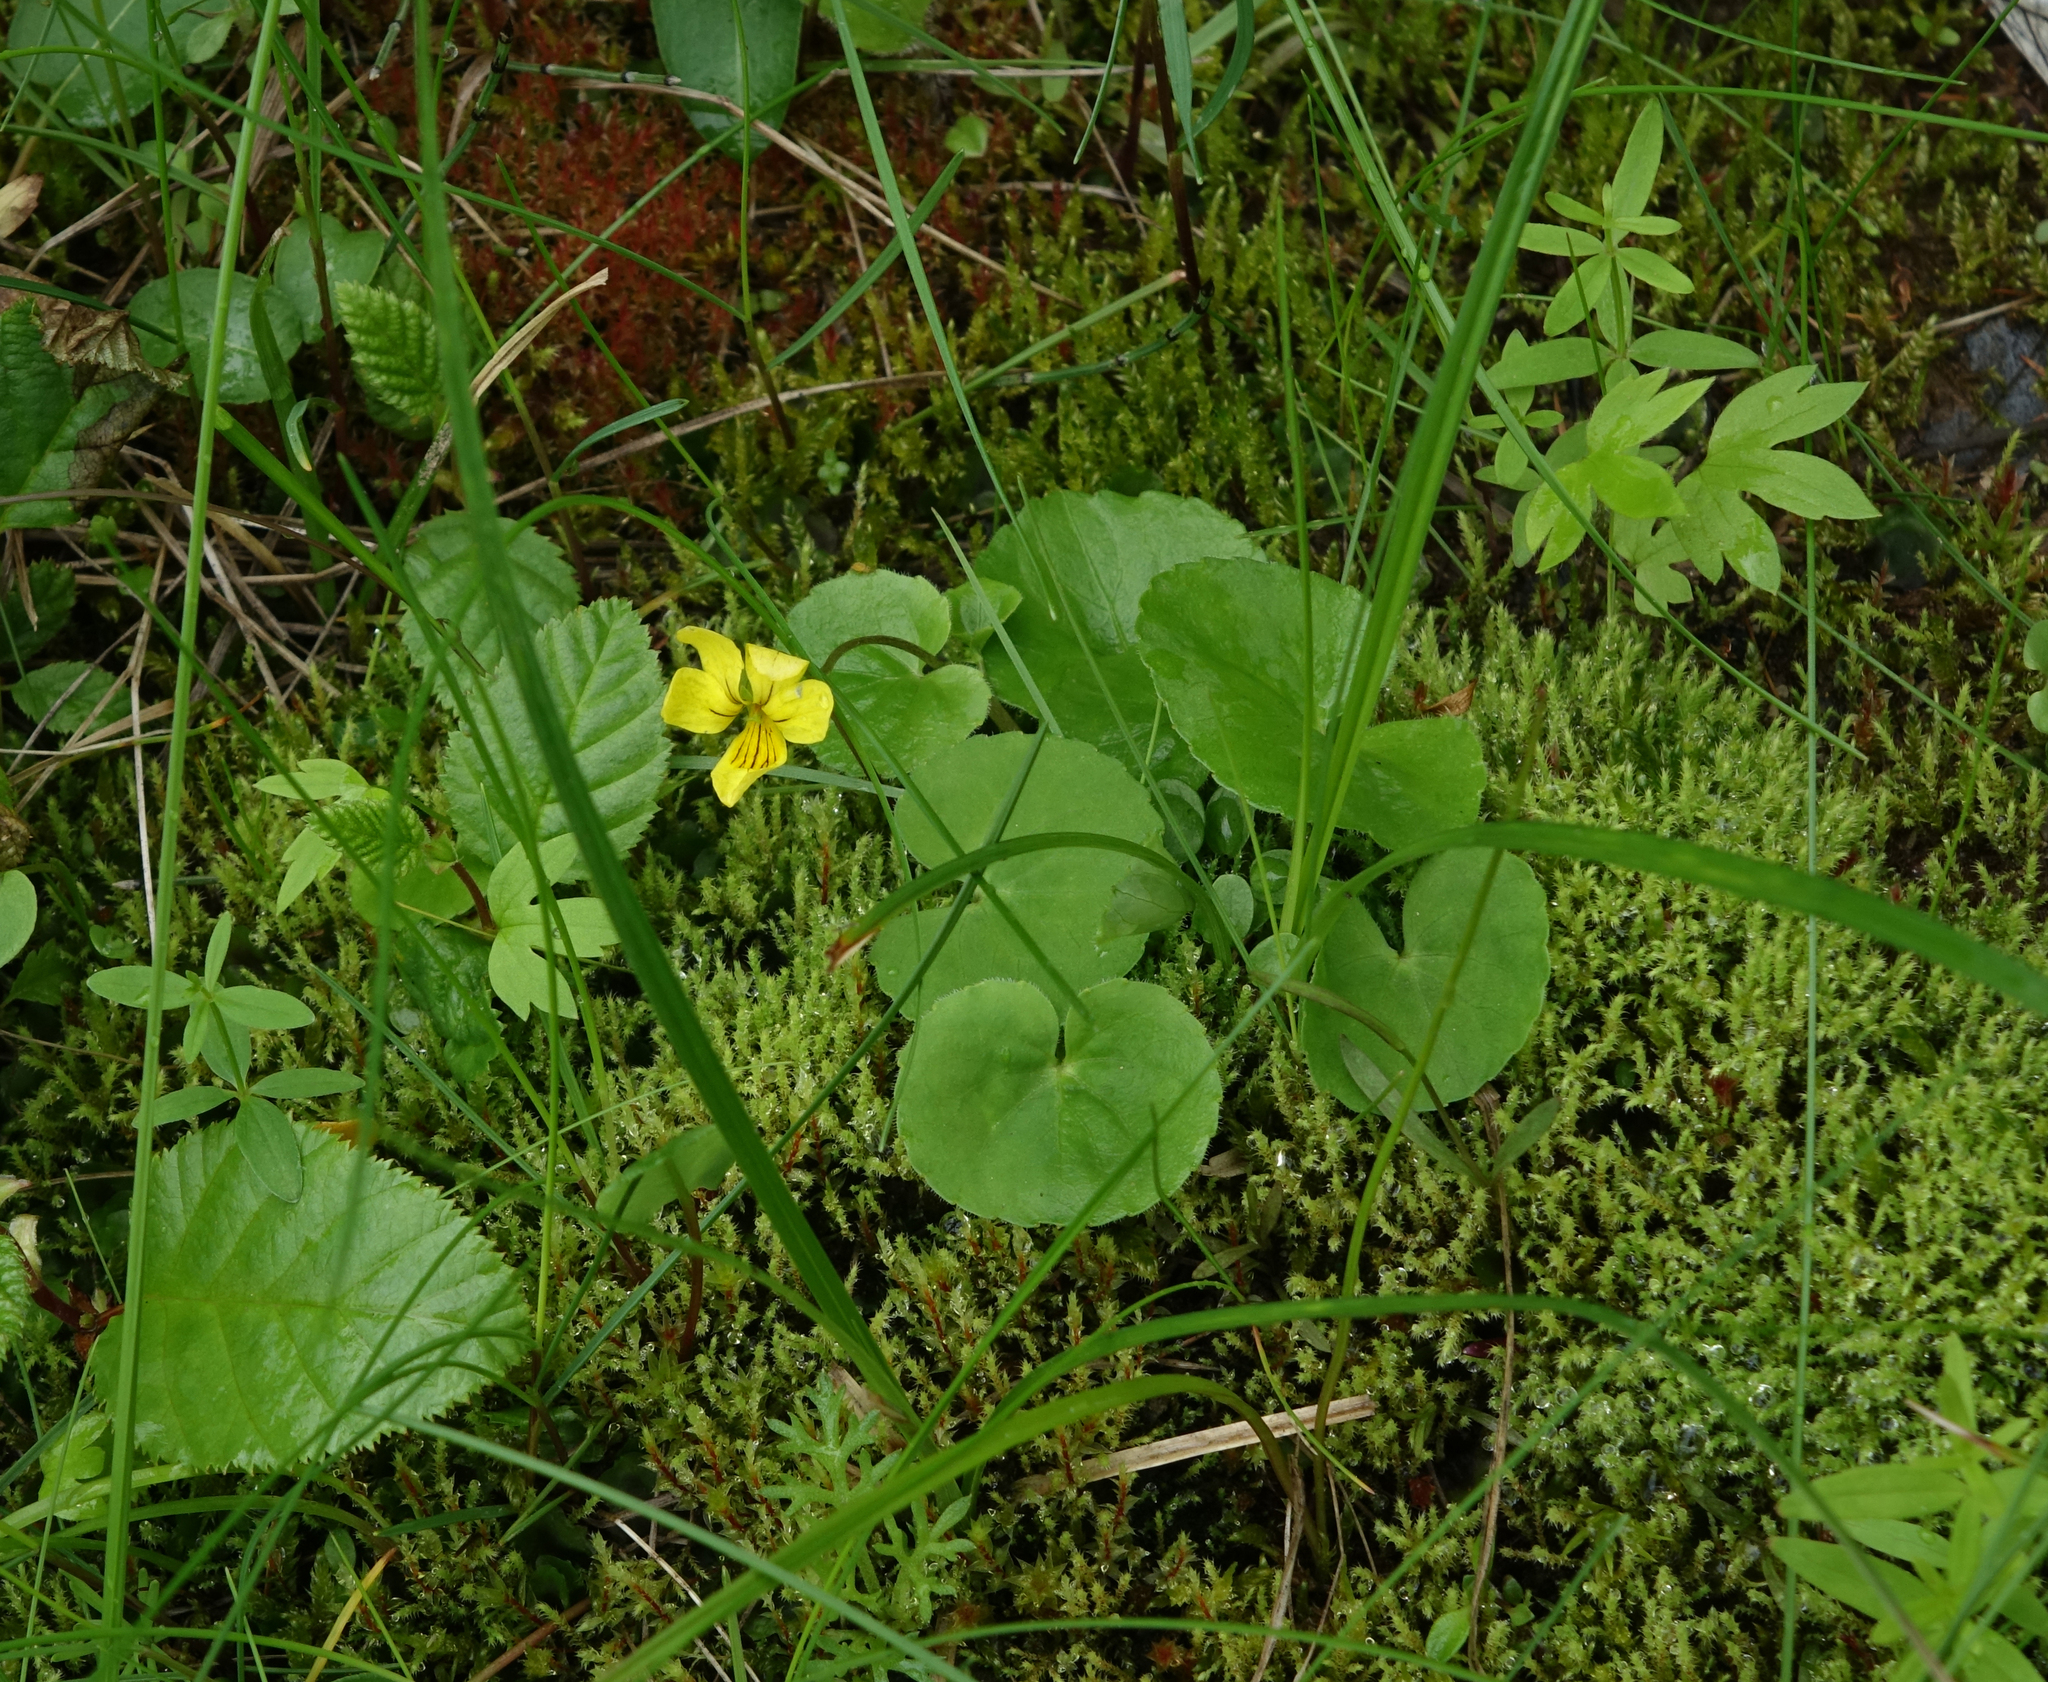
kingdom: Plantae
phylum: Tracheophyta
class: Magnoliopsida
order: Malpighiales
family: Violaceae
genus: Viola
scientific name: Viola biflora
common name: Alpine yellow violet
